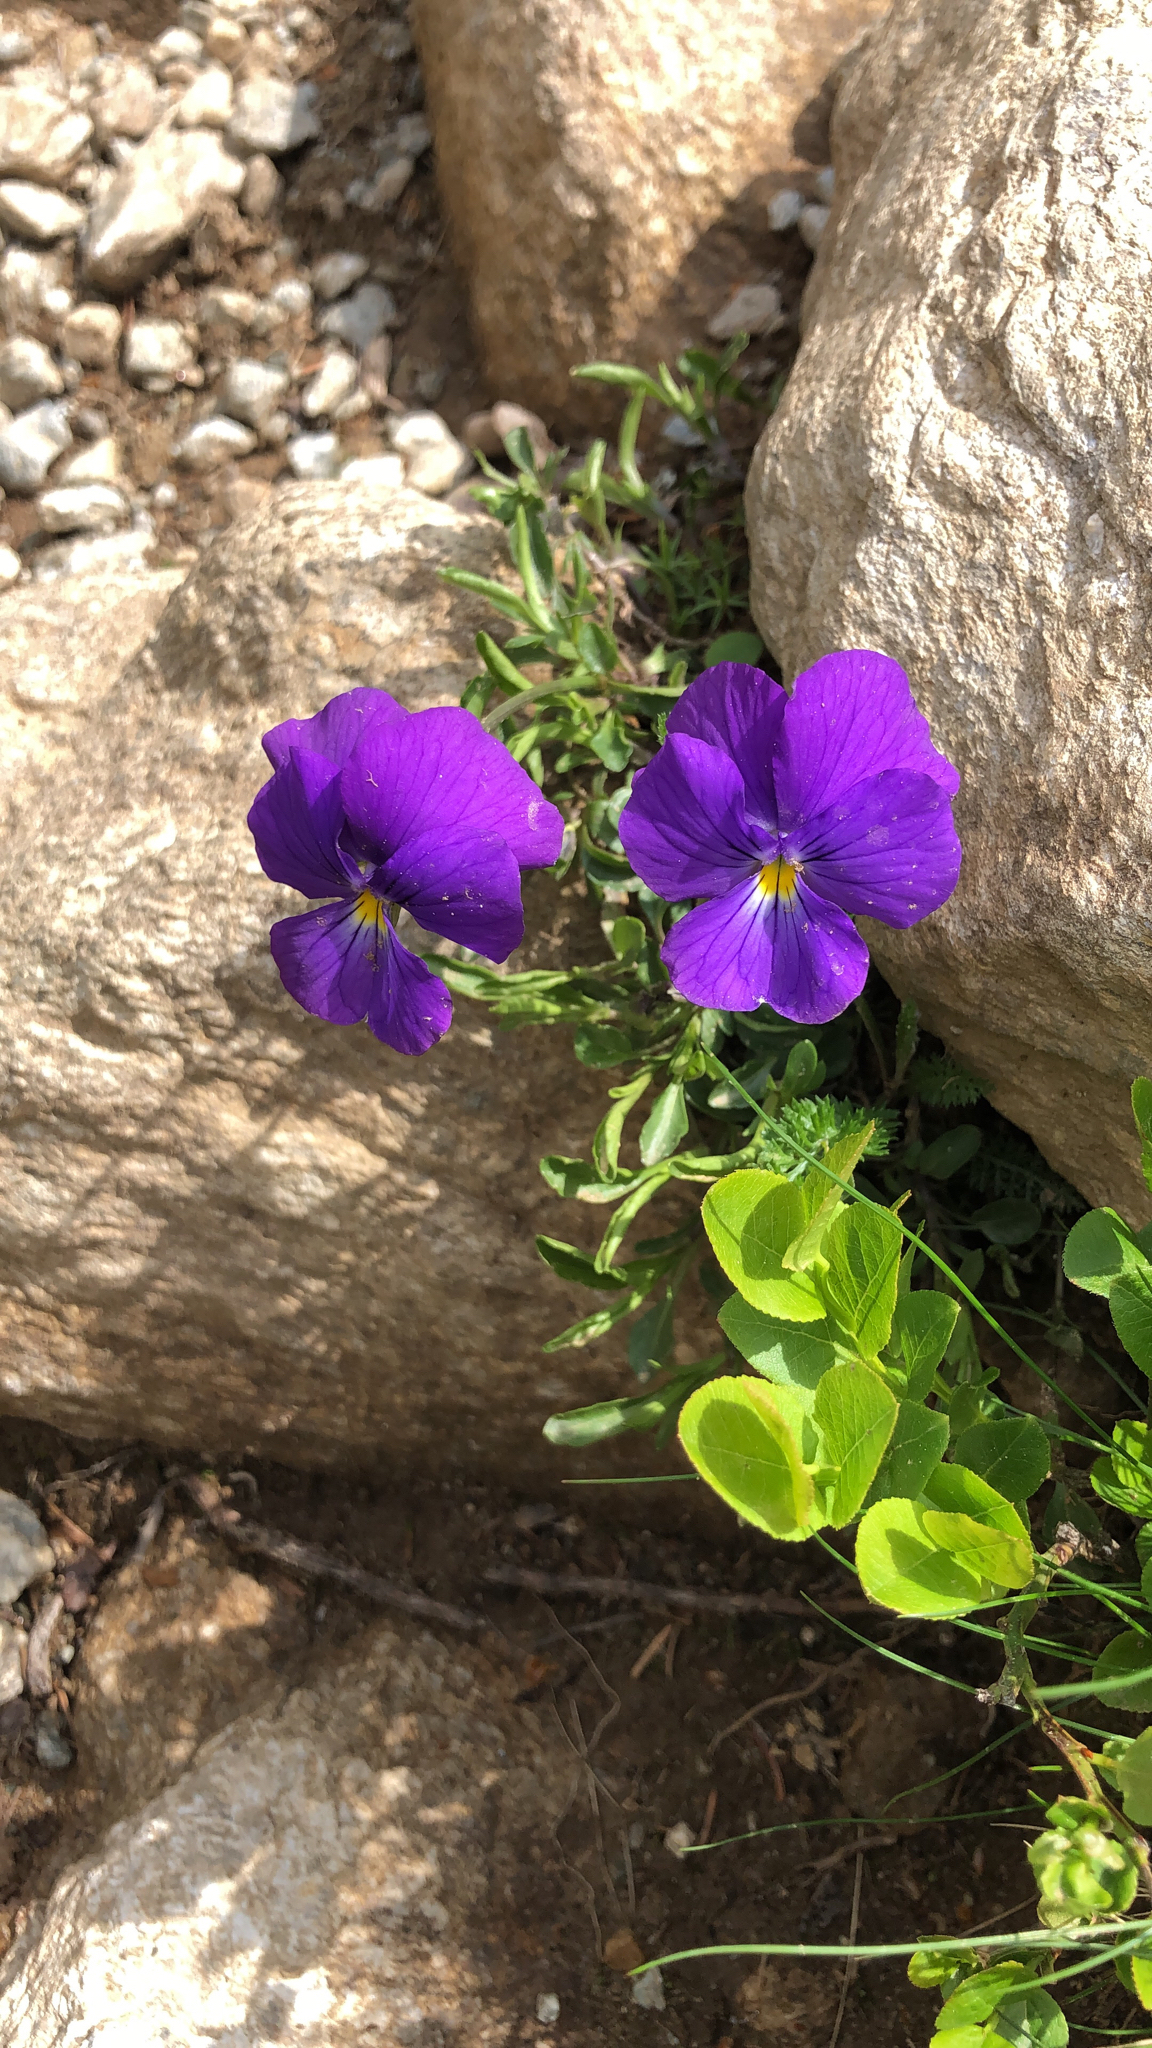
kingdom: Plantae
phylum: Tracheophyta
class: Magnoliopsida
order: Malpighiales
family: Violaceae
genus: Viola
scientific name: Viola calcarata
